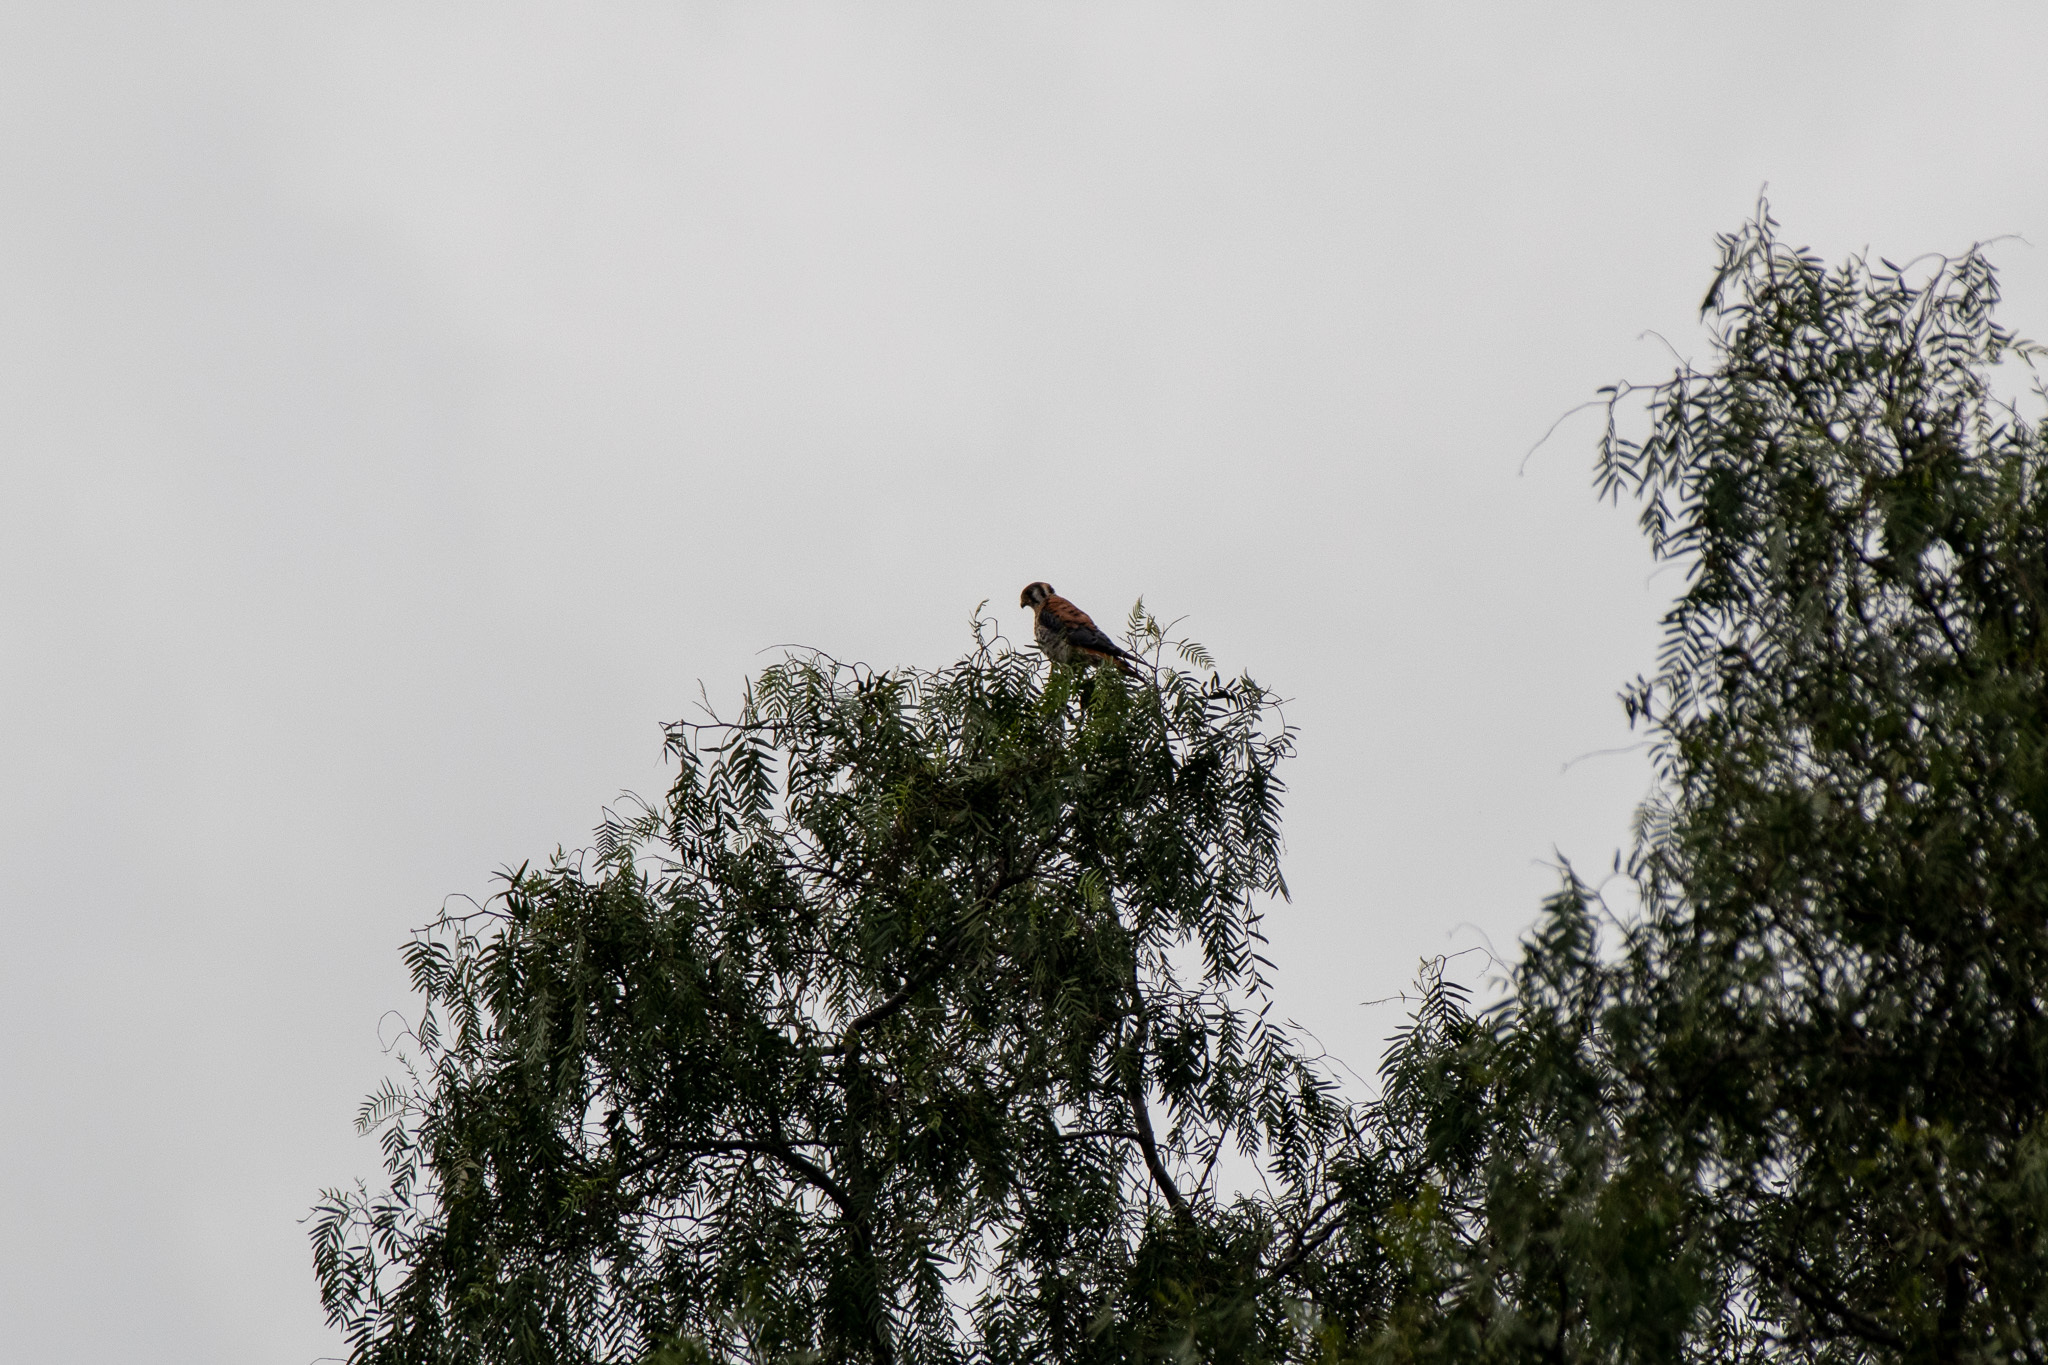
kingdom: Animalia
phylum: Chordata
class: Aves
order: Falconiformes
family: Falconidae
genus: Falco
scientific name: Falco sparverius
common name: American kestrel
